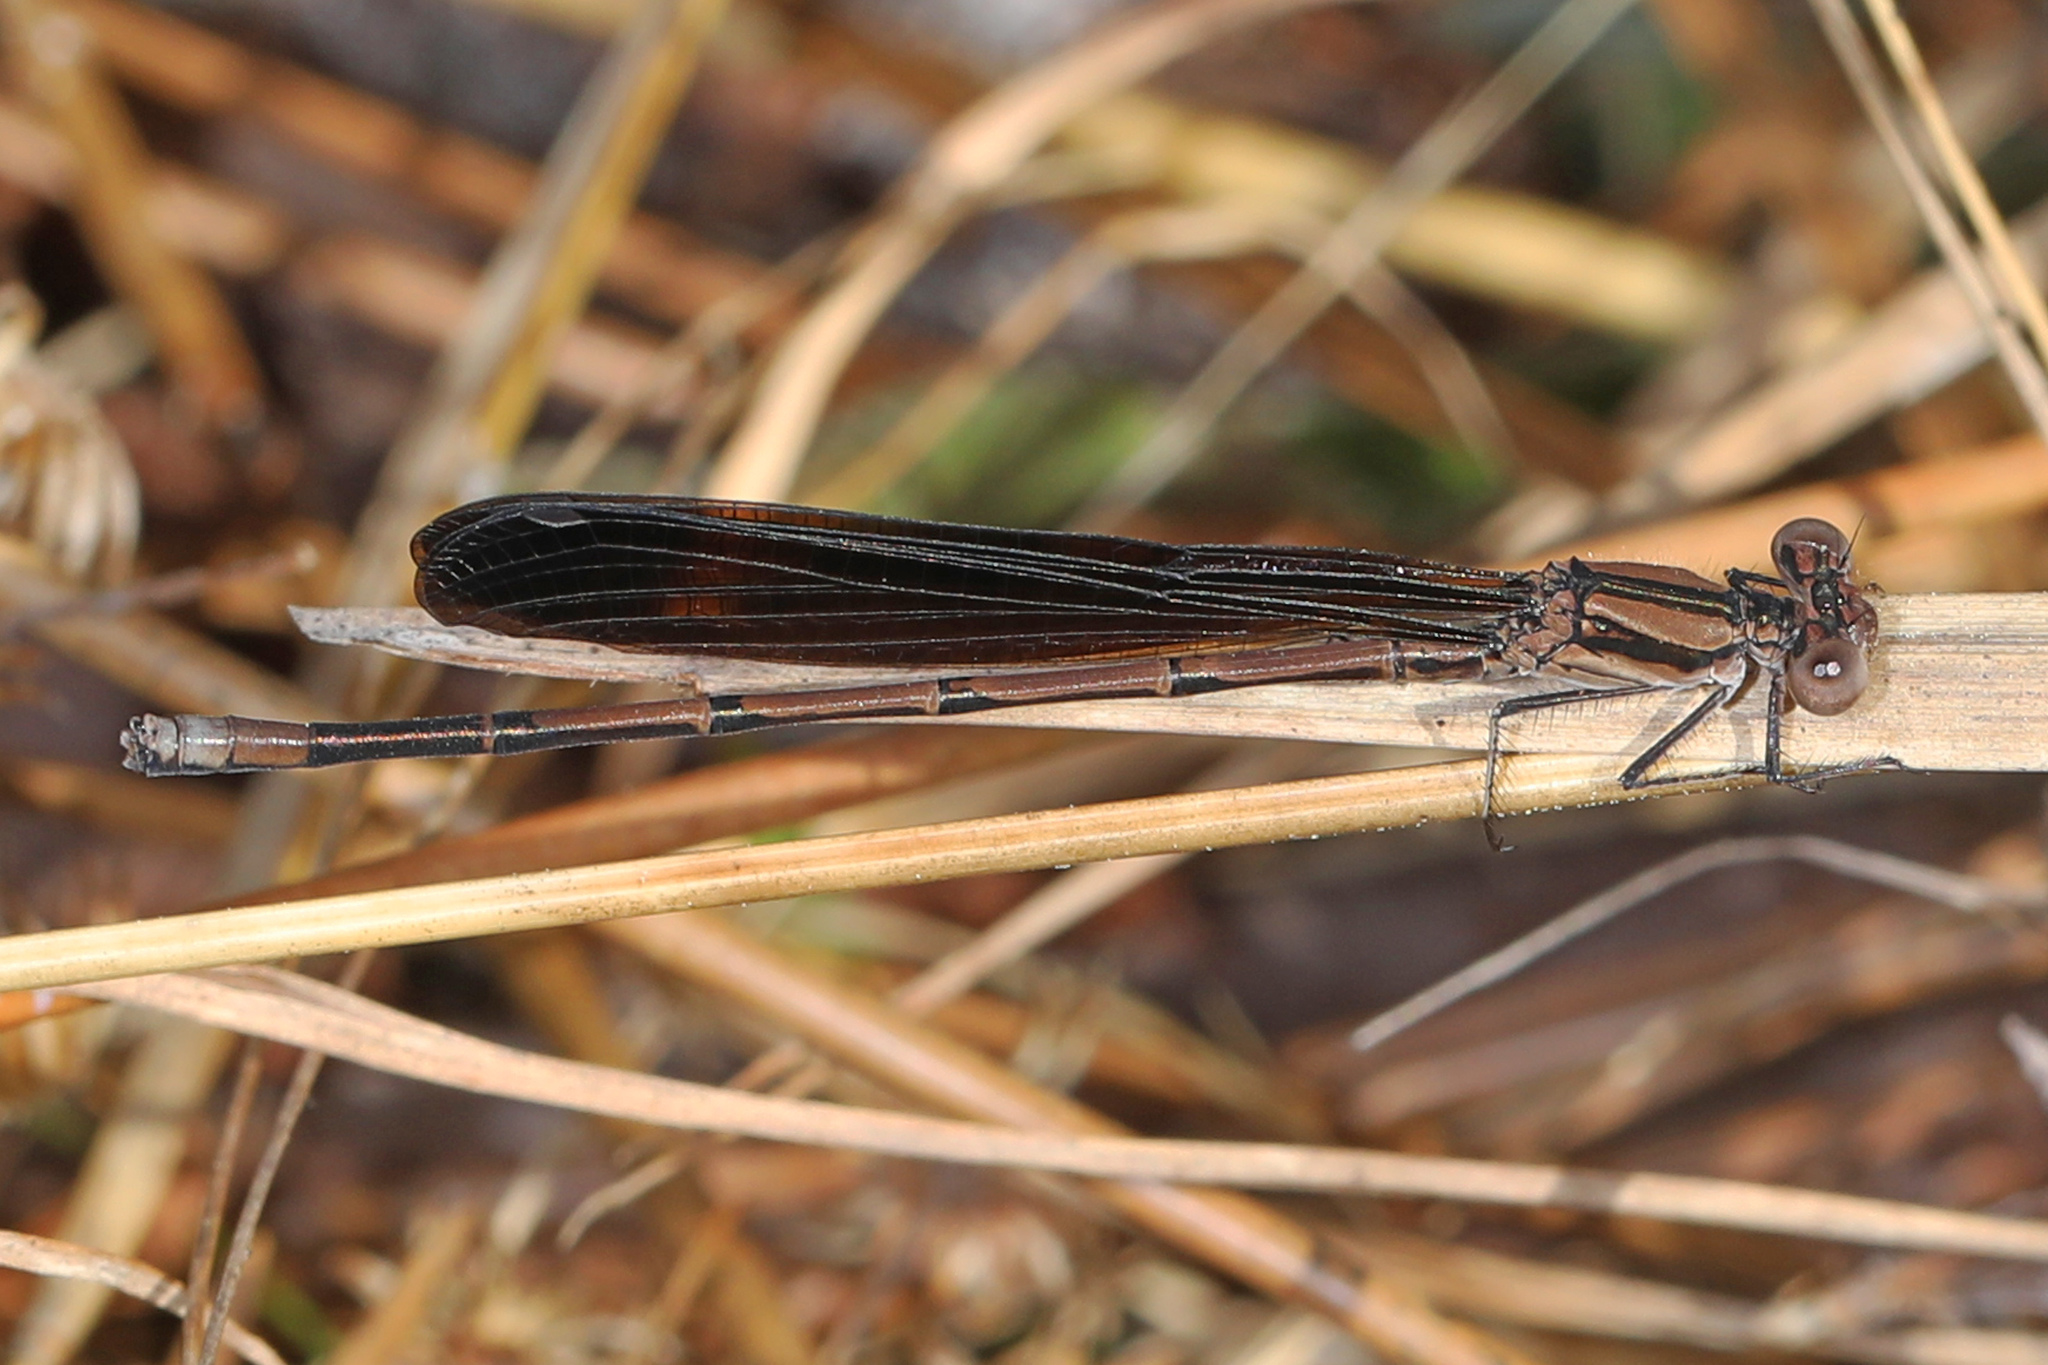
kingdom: Animalia
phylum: Arthropoda
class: Insecta
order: Odonata
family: Coenagrionidae
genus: Argia
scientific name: Argia fumipennis
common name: Variable dancer
